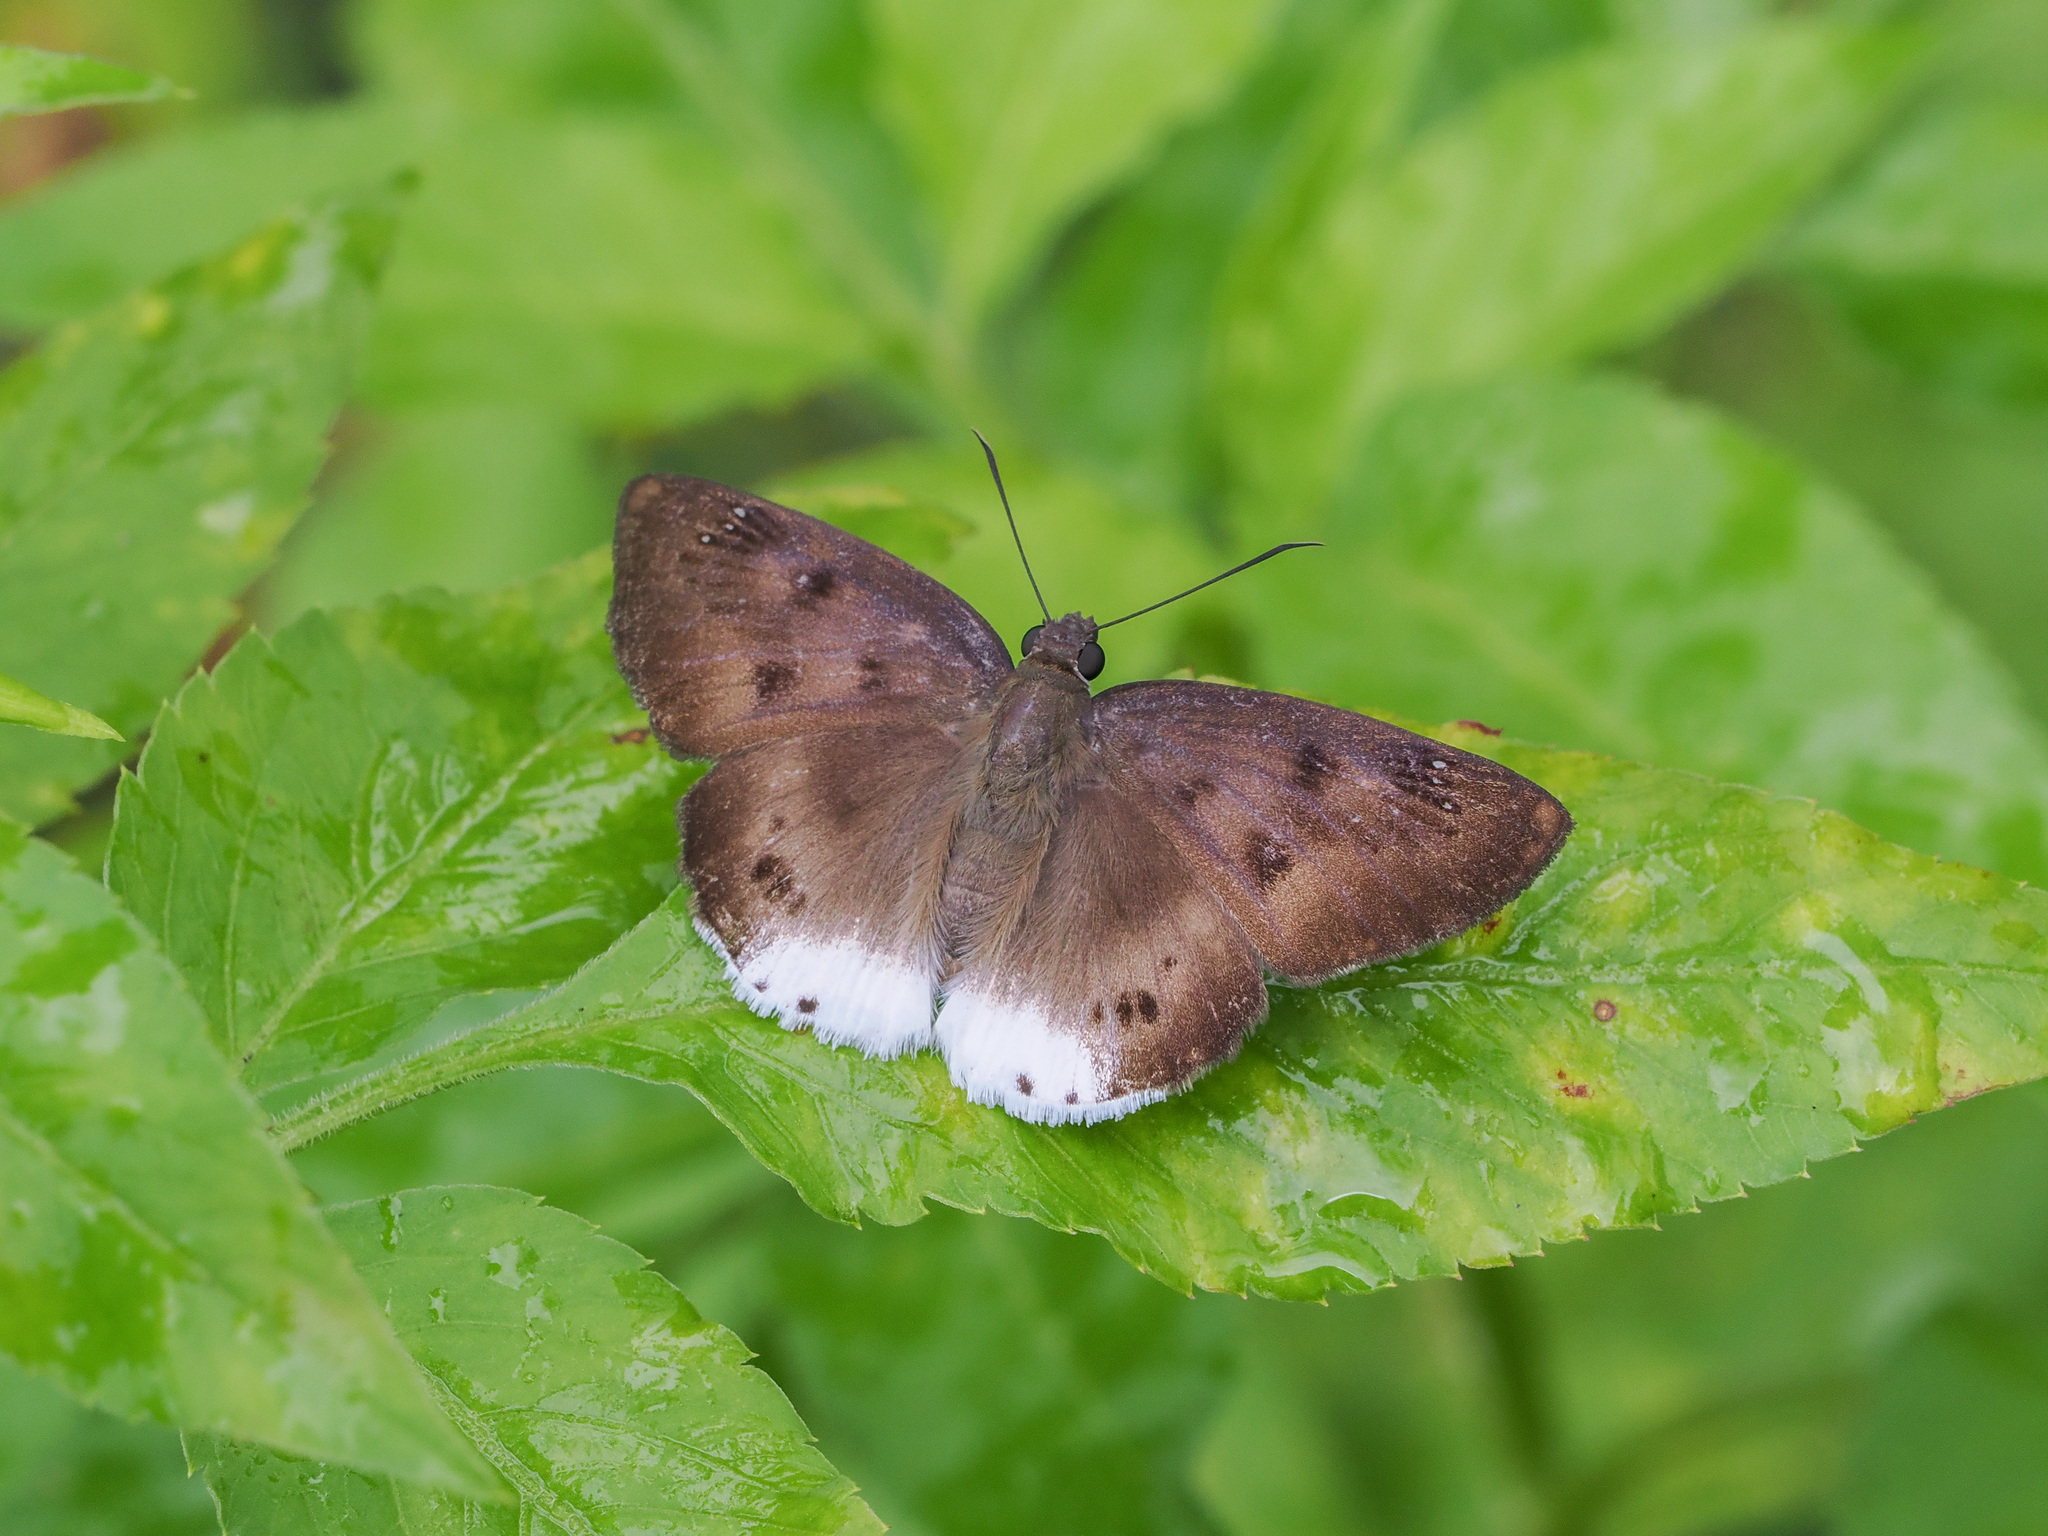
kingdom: Animalia
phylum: Arthropoda
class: Insecta
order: Lepidoptera
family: Hesperiidae
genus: Tagiades
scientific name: Tagiades gana
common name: Suffused snow flat
